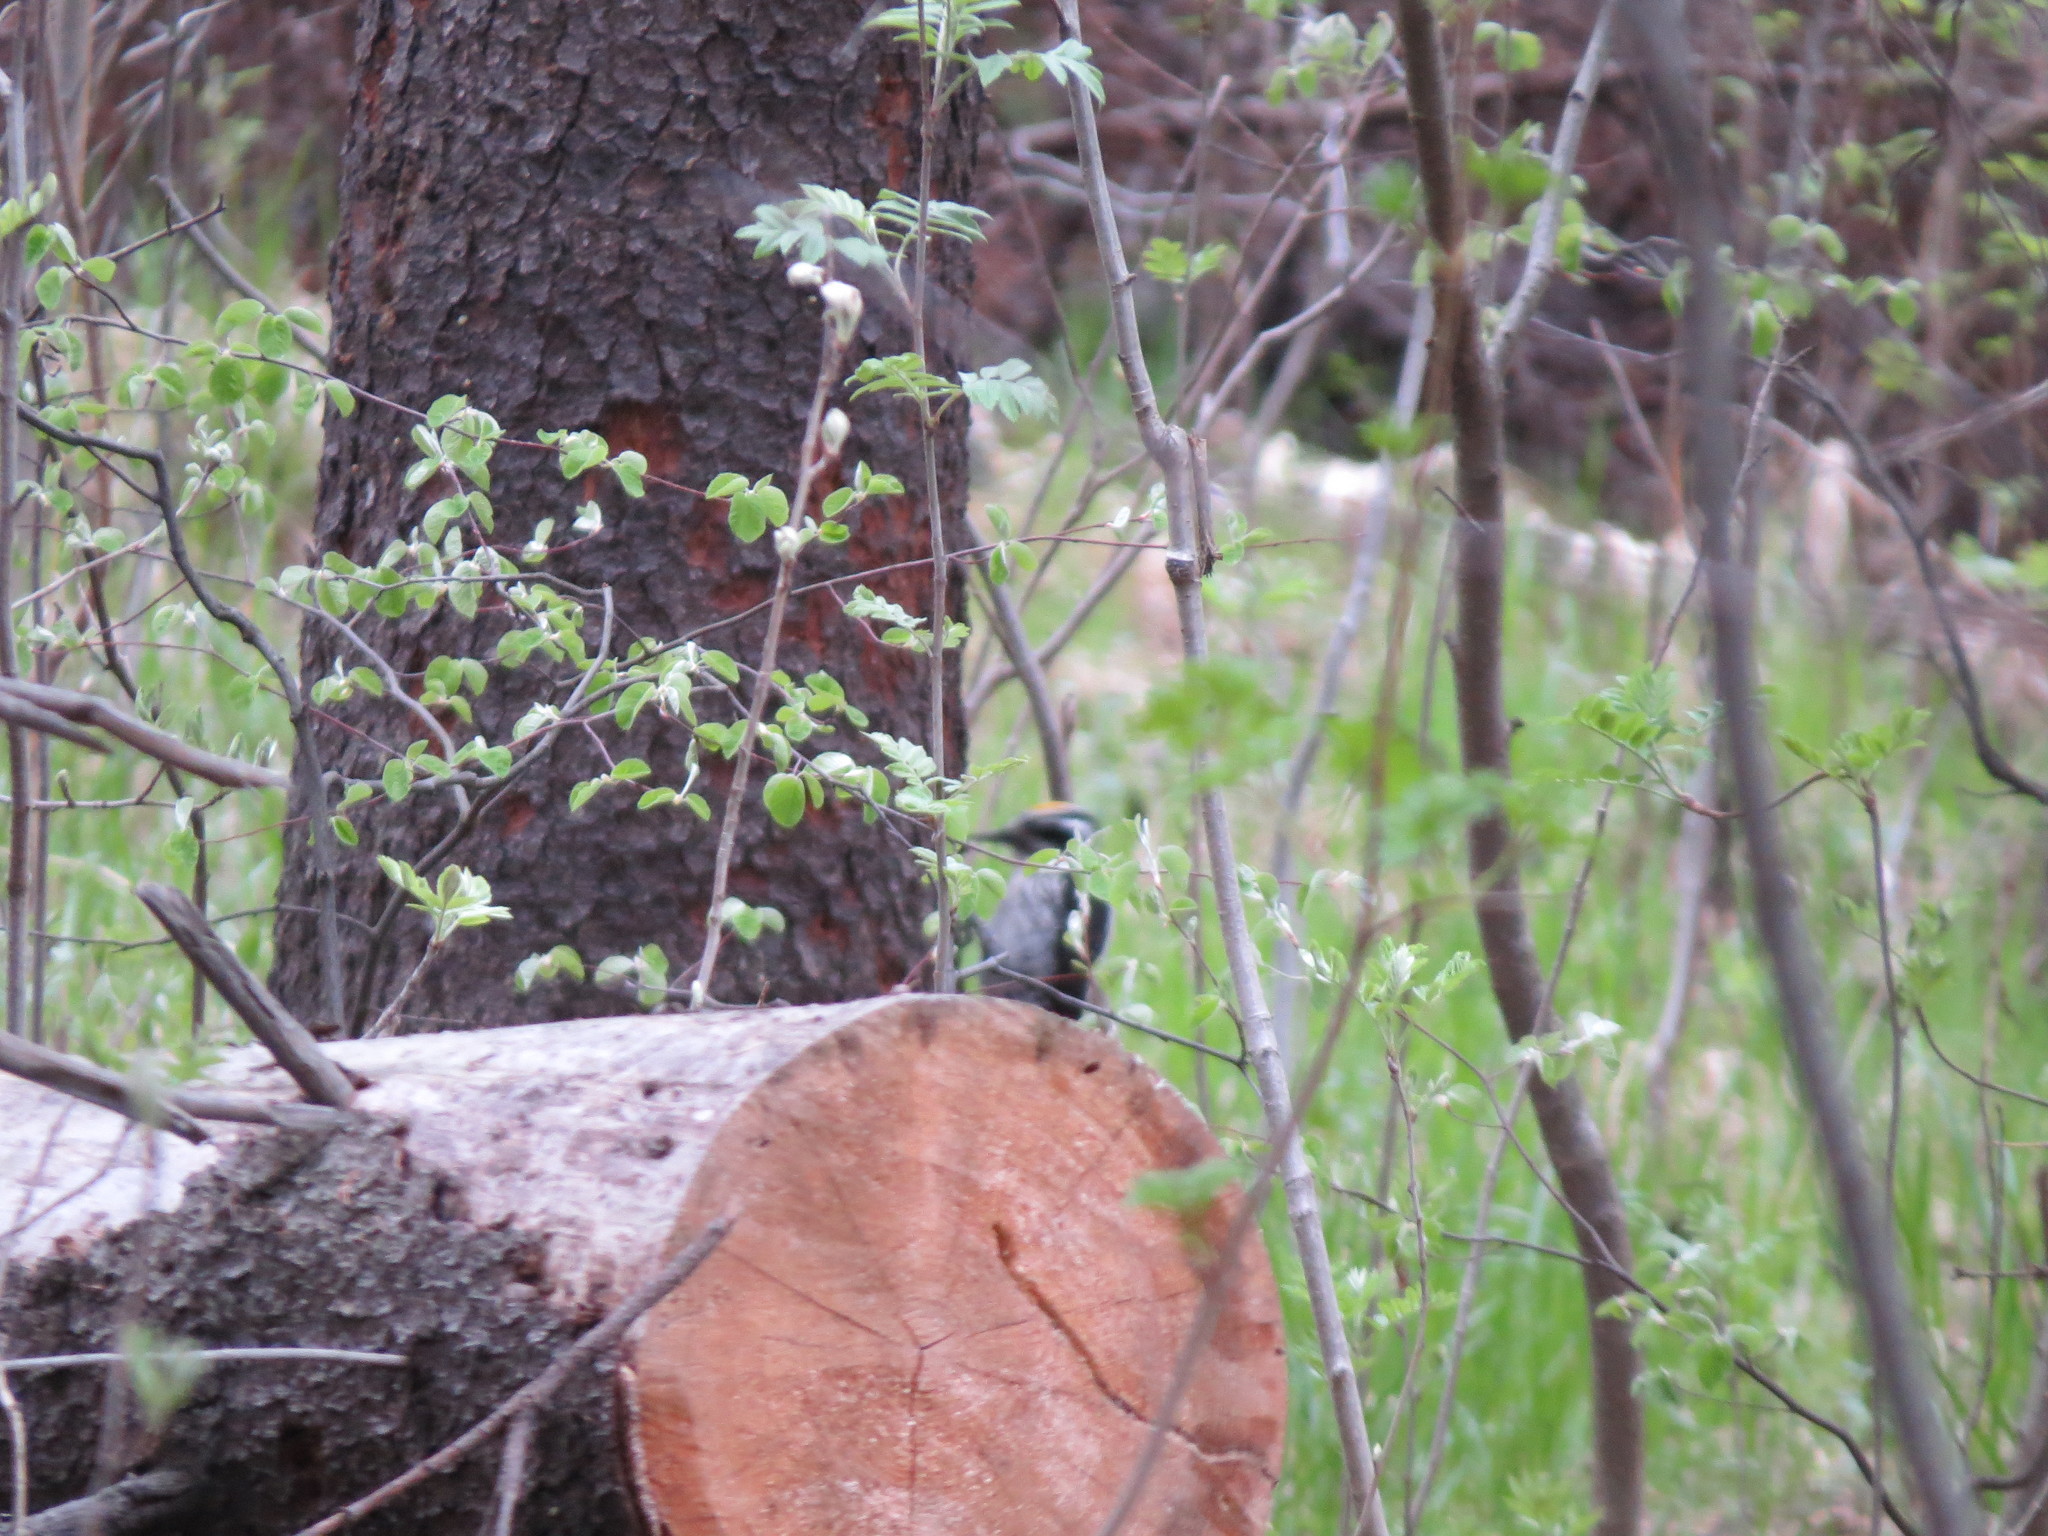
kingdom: Animalia
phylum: Chordata
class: Aves
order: Piciformes
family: Picidae
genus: Picoides
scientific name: Picoides tridactylus
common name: Eurasian three-toed woodpecker
